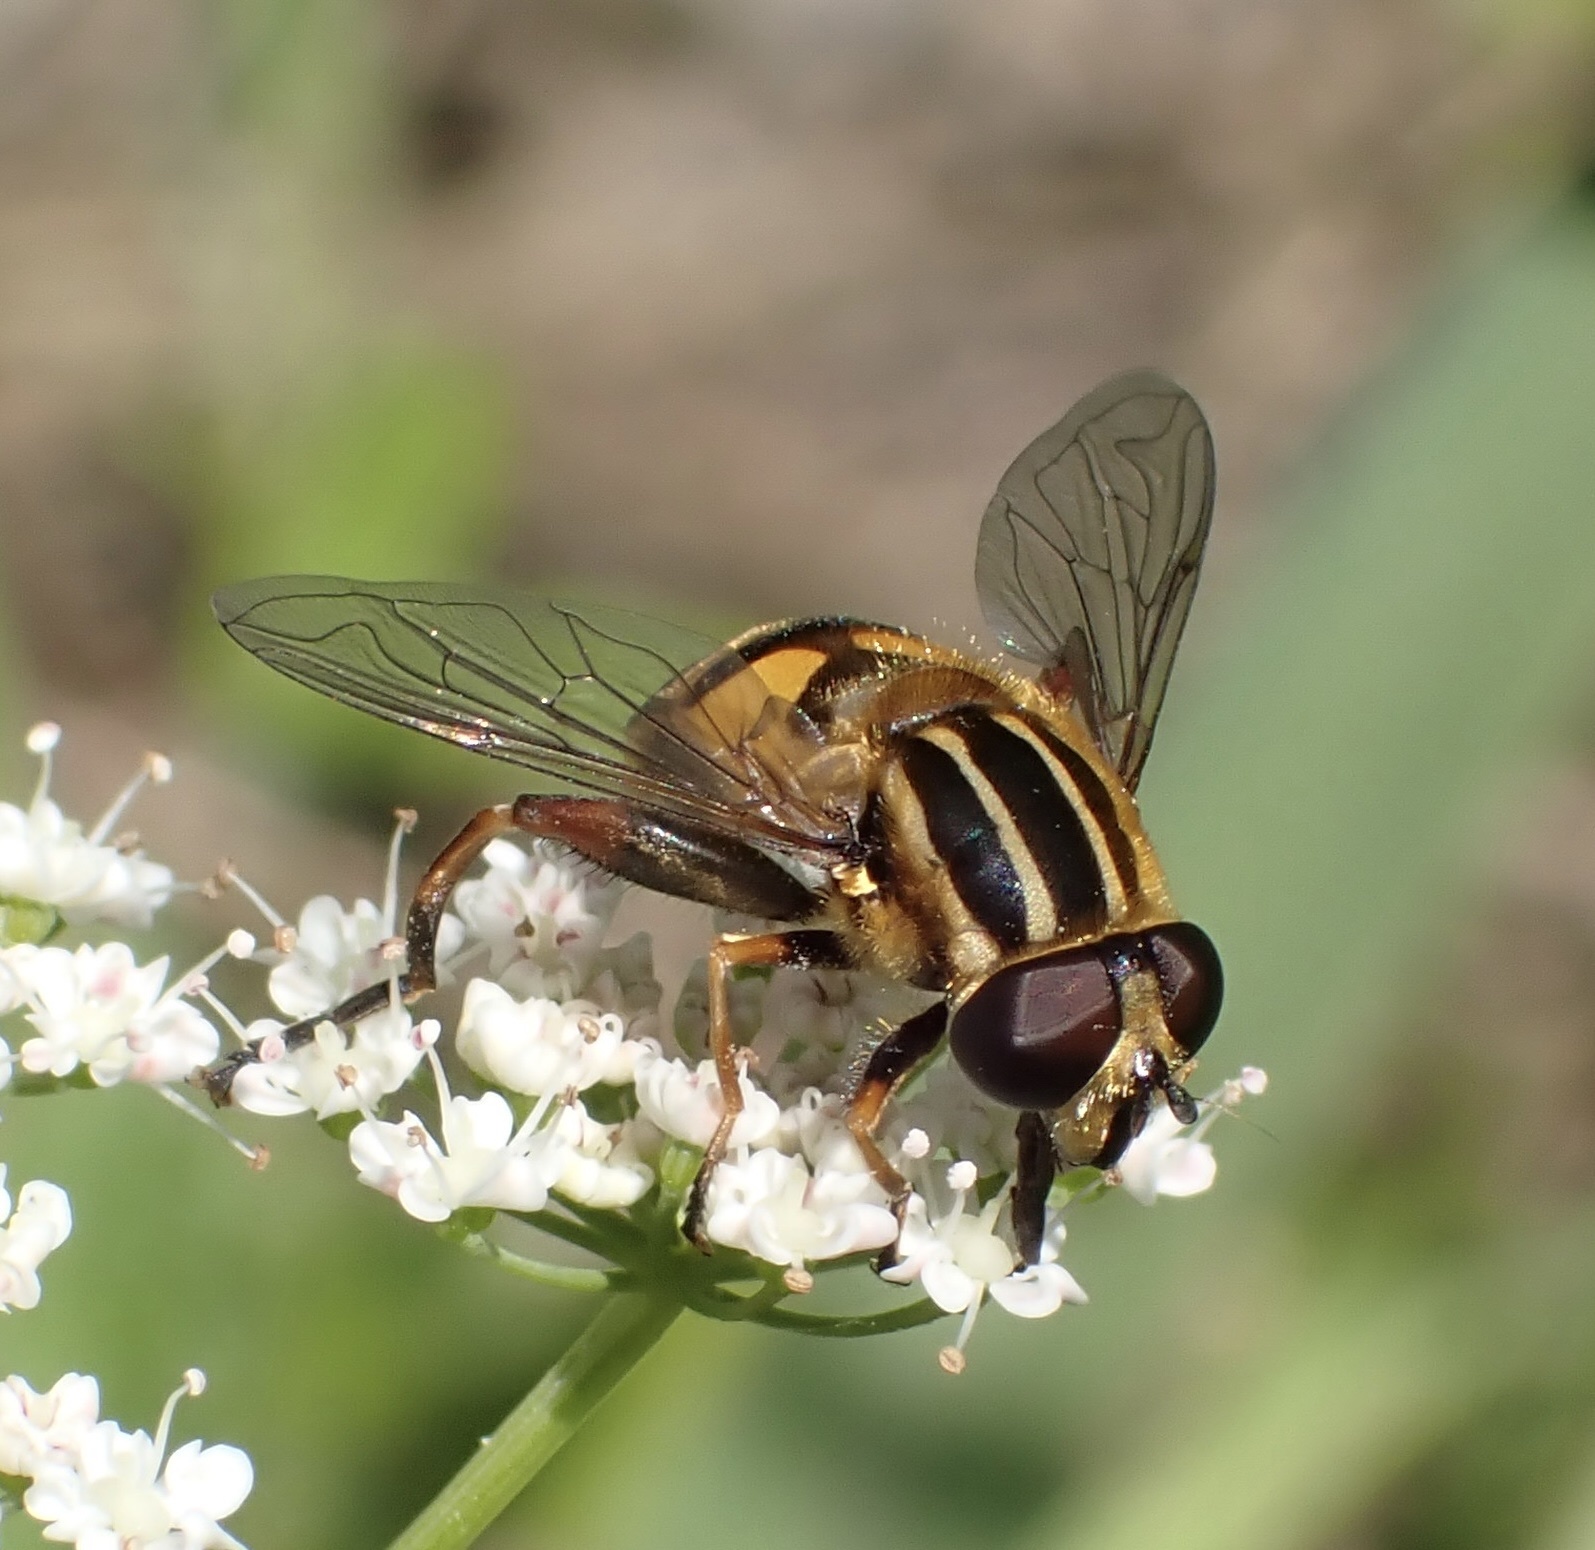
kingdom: Animalia
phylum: Arthropoda
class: Insecta
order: Diptera
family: Syrphidae
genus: Helophilus
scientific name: Helophilus pendulus
